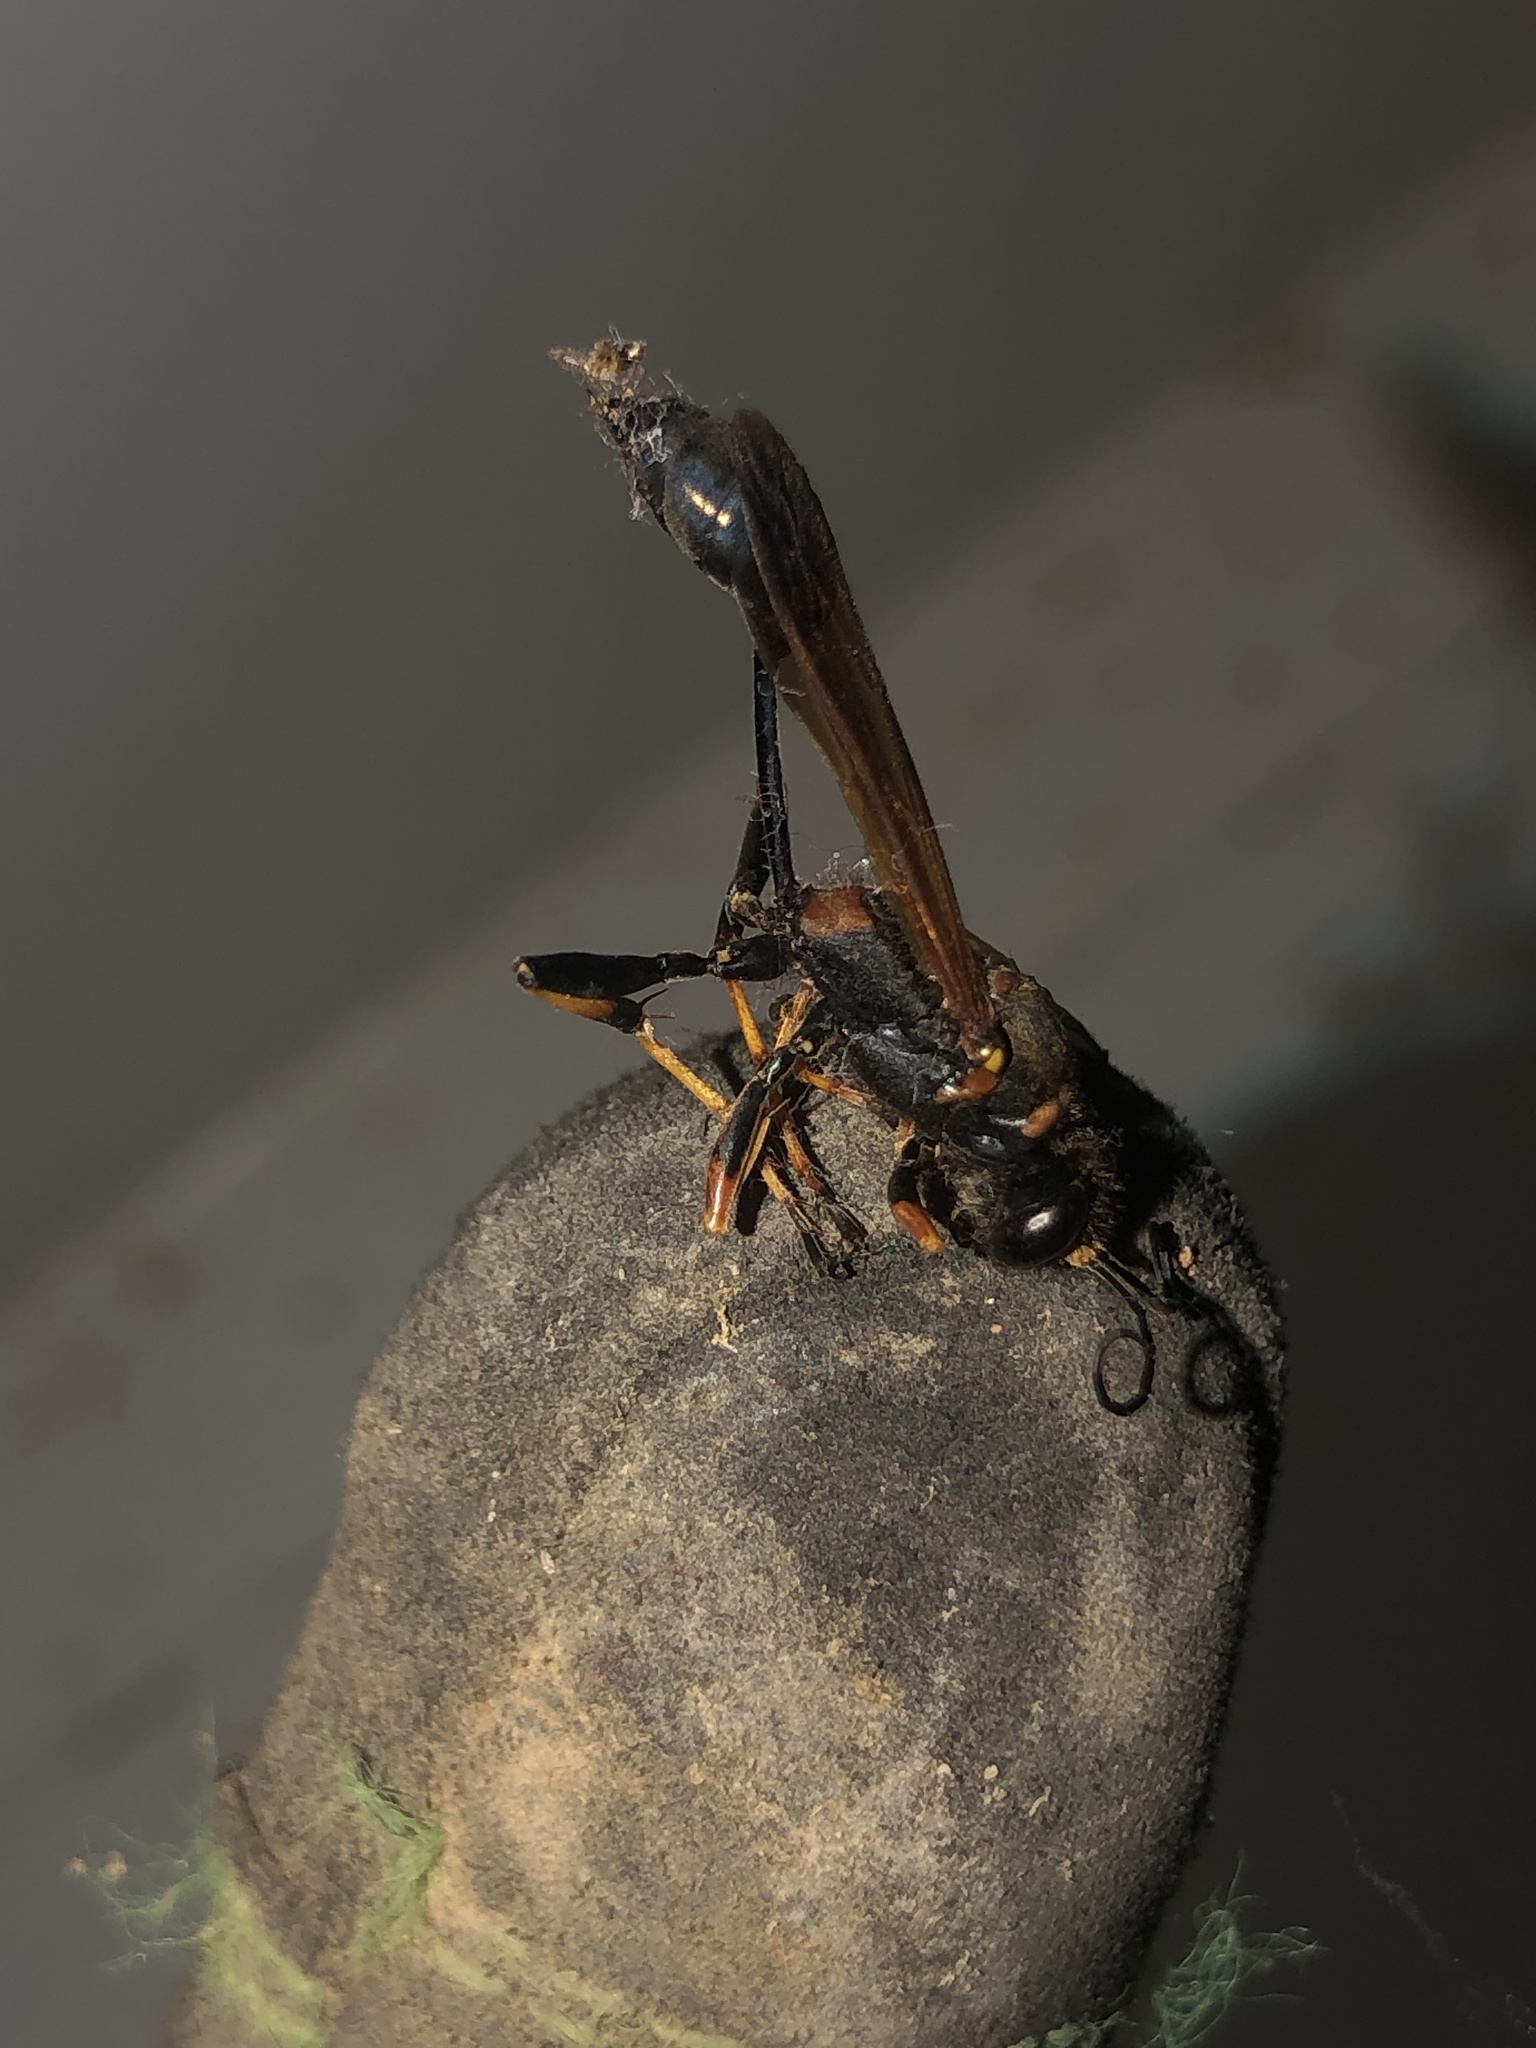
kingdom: Animalia
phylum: Arthropoda
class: Insecta
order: Hymenoptera
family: Sphecidae
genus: Sceliphron
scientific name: Sceliphron caementarium
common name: Mud dauber
